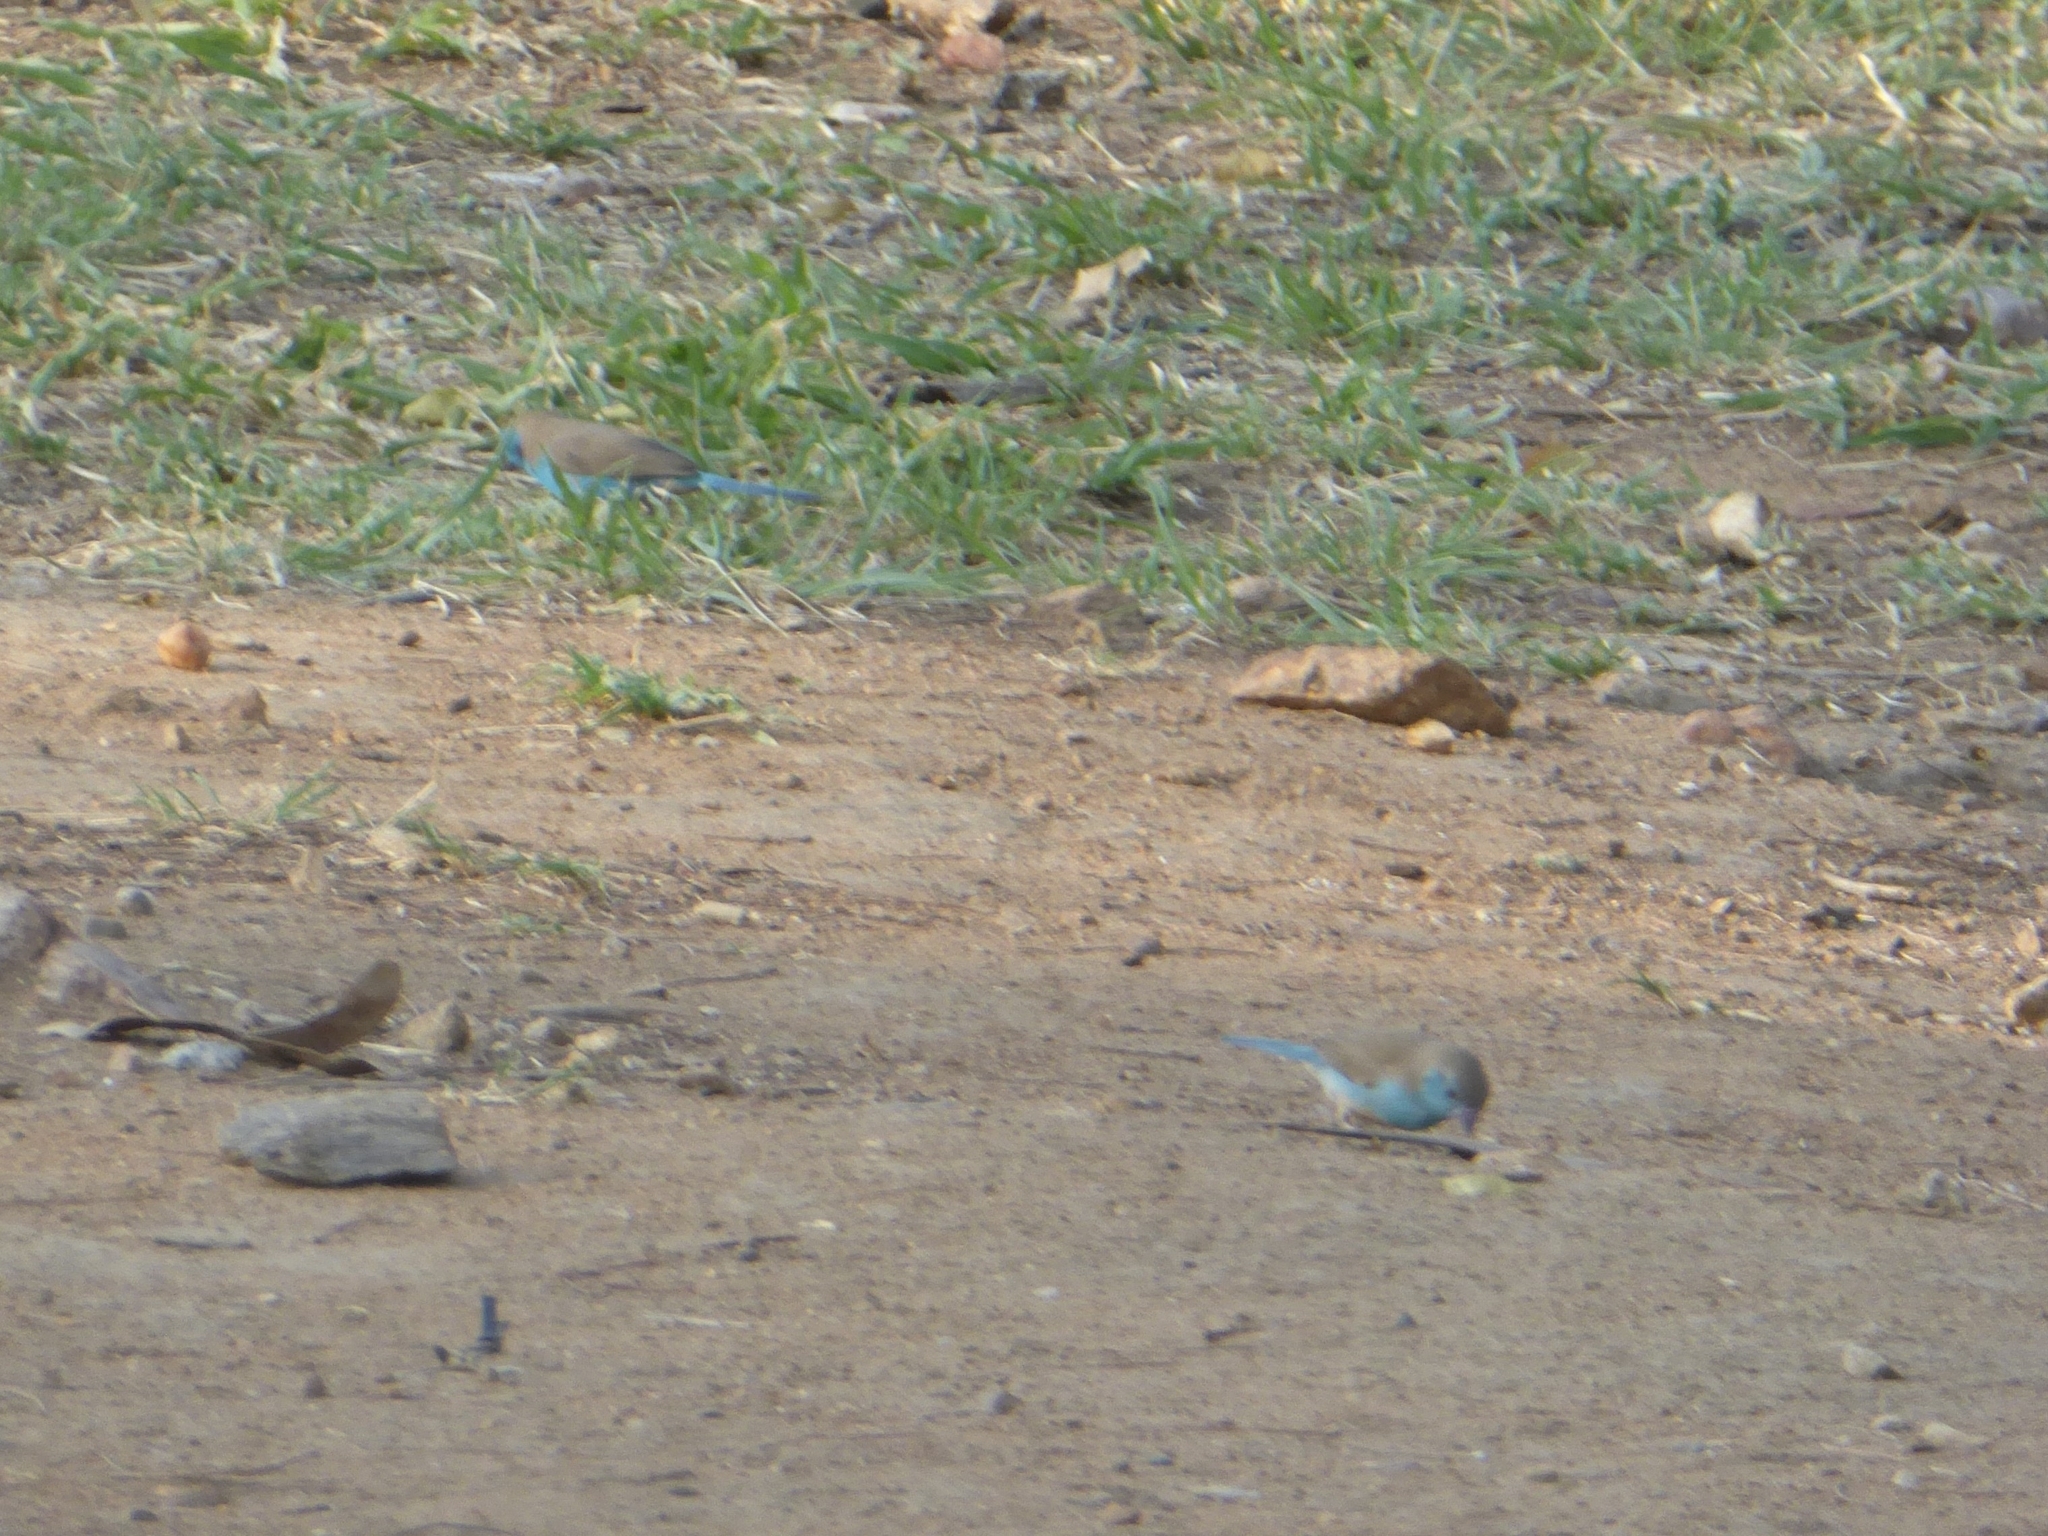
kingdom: Animalia
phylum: Chordata
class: Aves
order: Passeriformes
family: Estrildidae
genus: Uraeginthus
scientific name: Uraeginthus angolensis
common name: Blue waxbill
